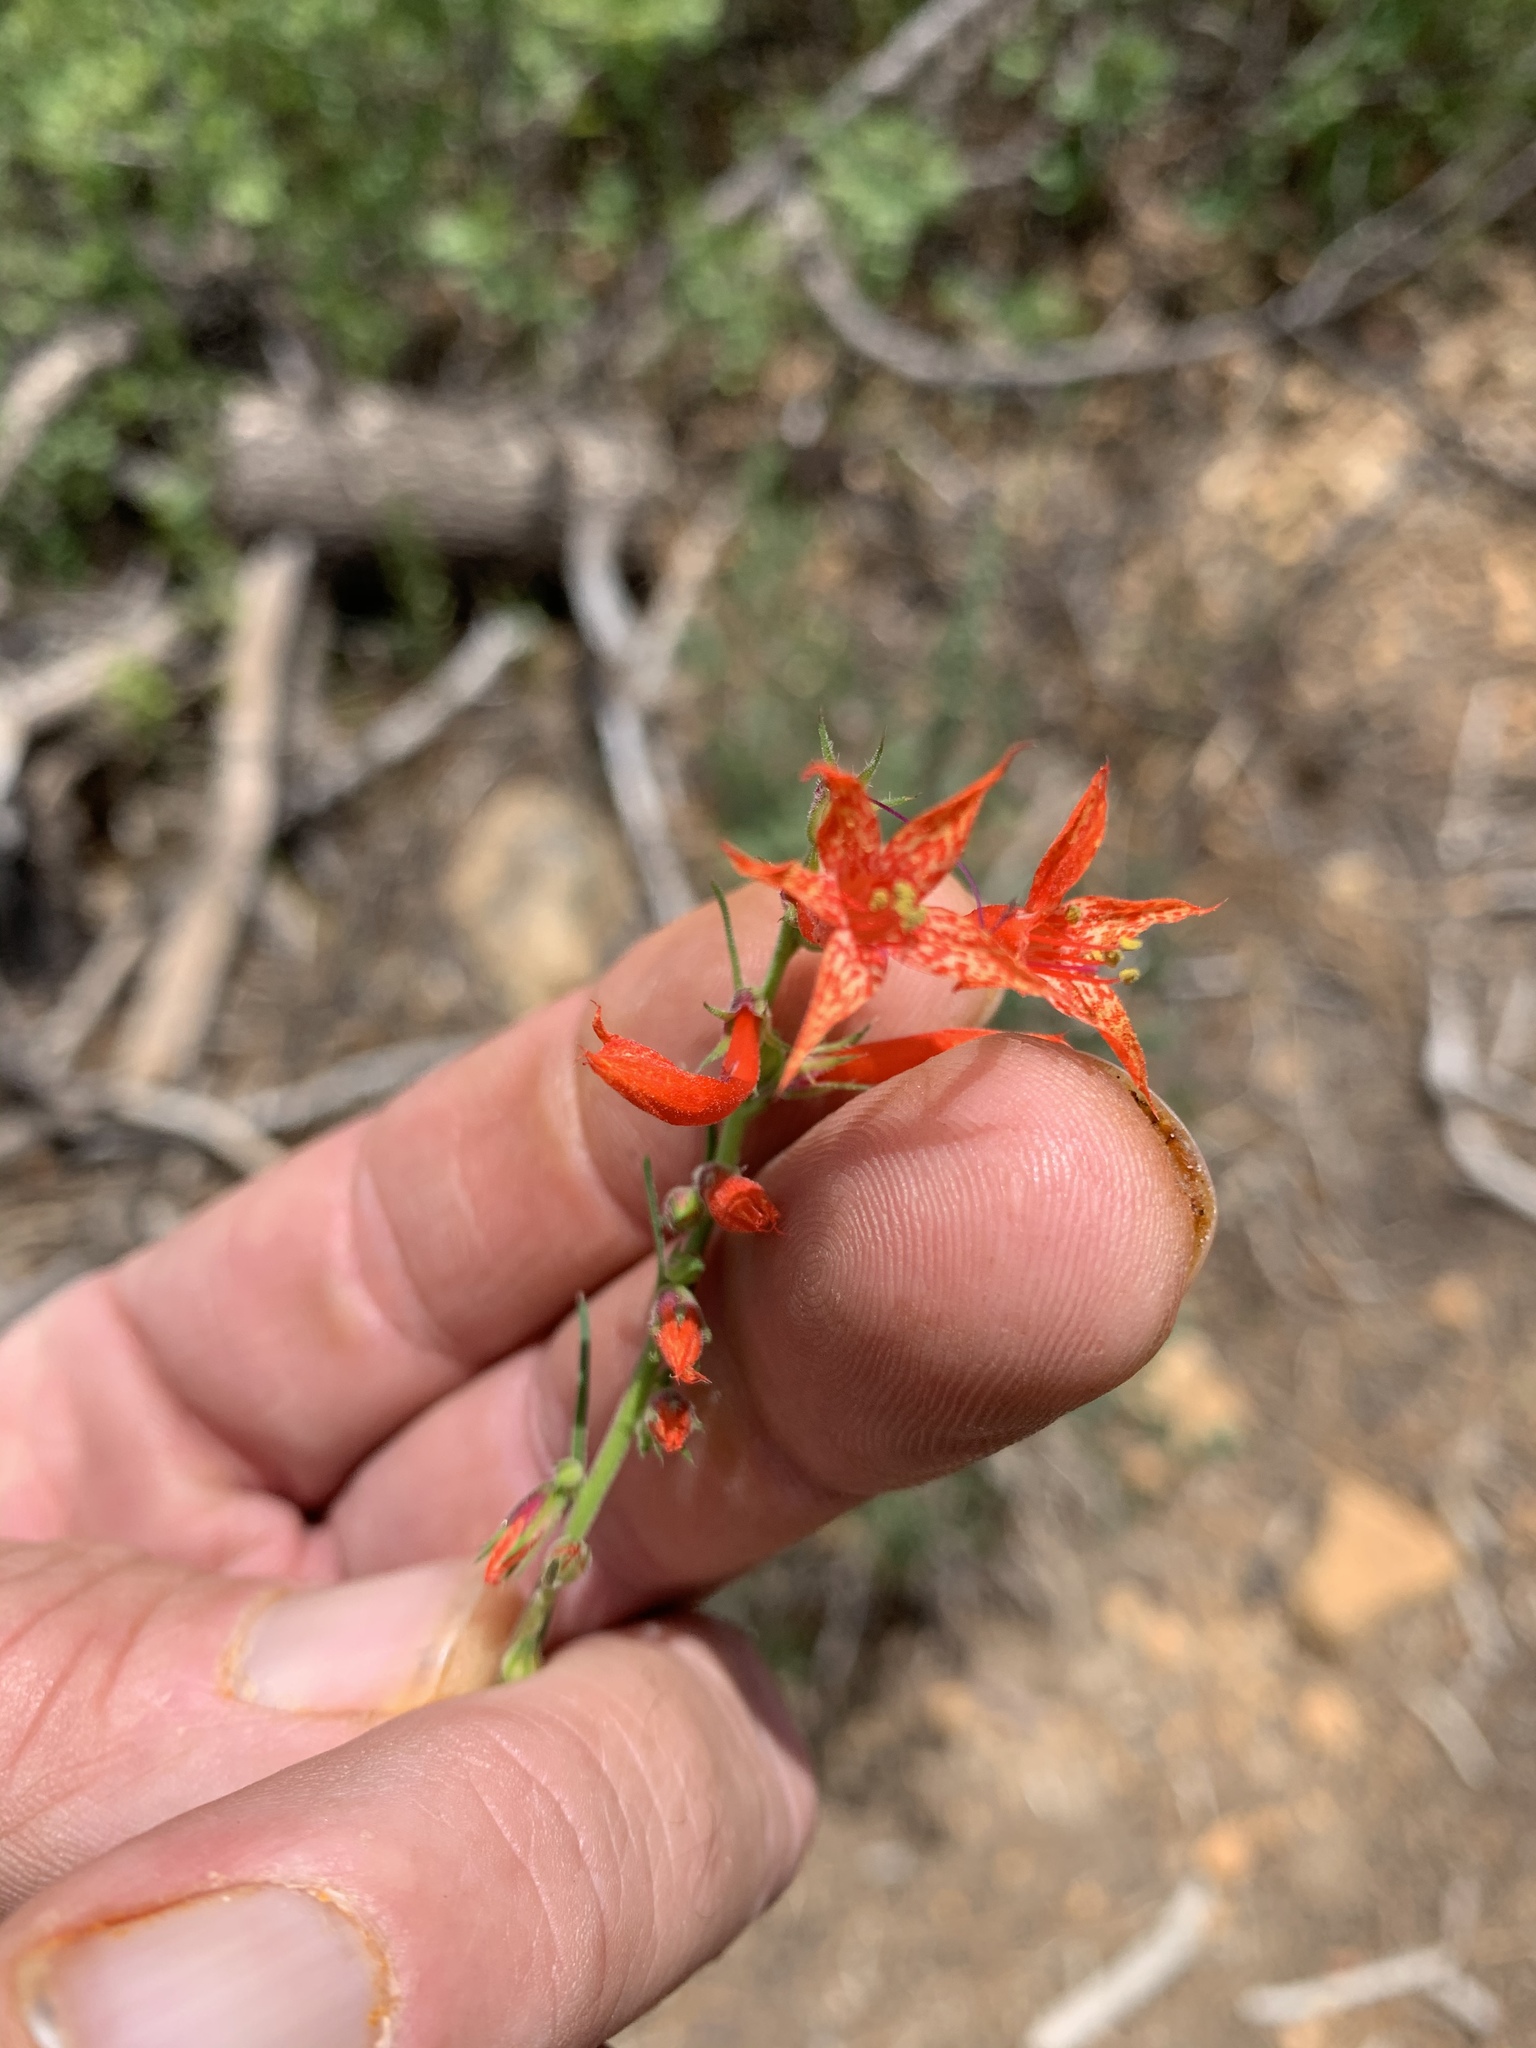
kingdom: Plantae
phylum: Tracheophyta
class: Magnoliopsida
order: Ericales
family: Polemoniaceae
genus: Ipomopsis
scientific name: Ipomopsis aggregata
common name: Scarlet gilia
